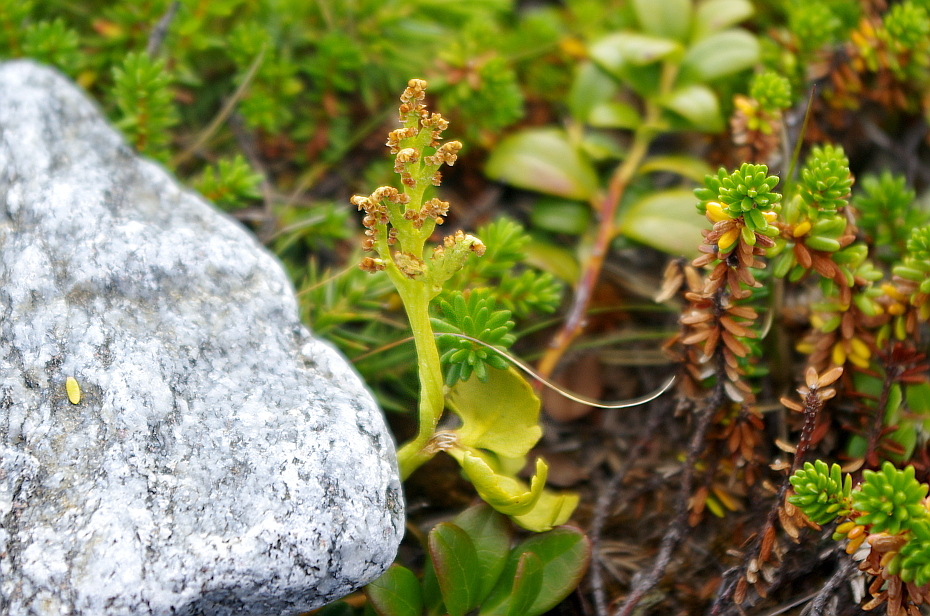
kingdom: Plantae
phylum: Tracheophyta
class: Polypodiopsida
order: Ophioglossales
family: Ophioglossaceae
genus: Botrychium
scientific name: Botrychium boreale
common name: Boreal moonwort
